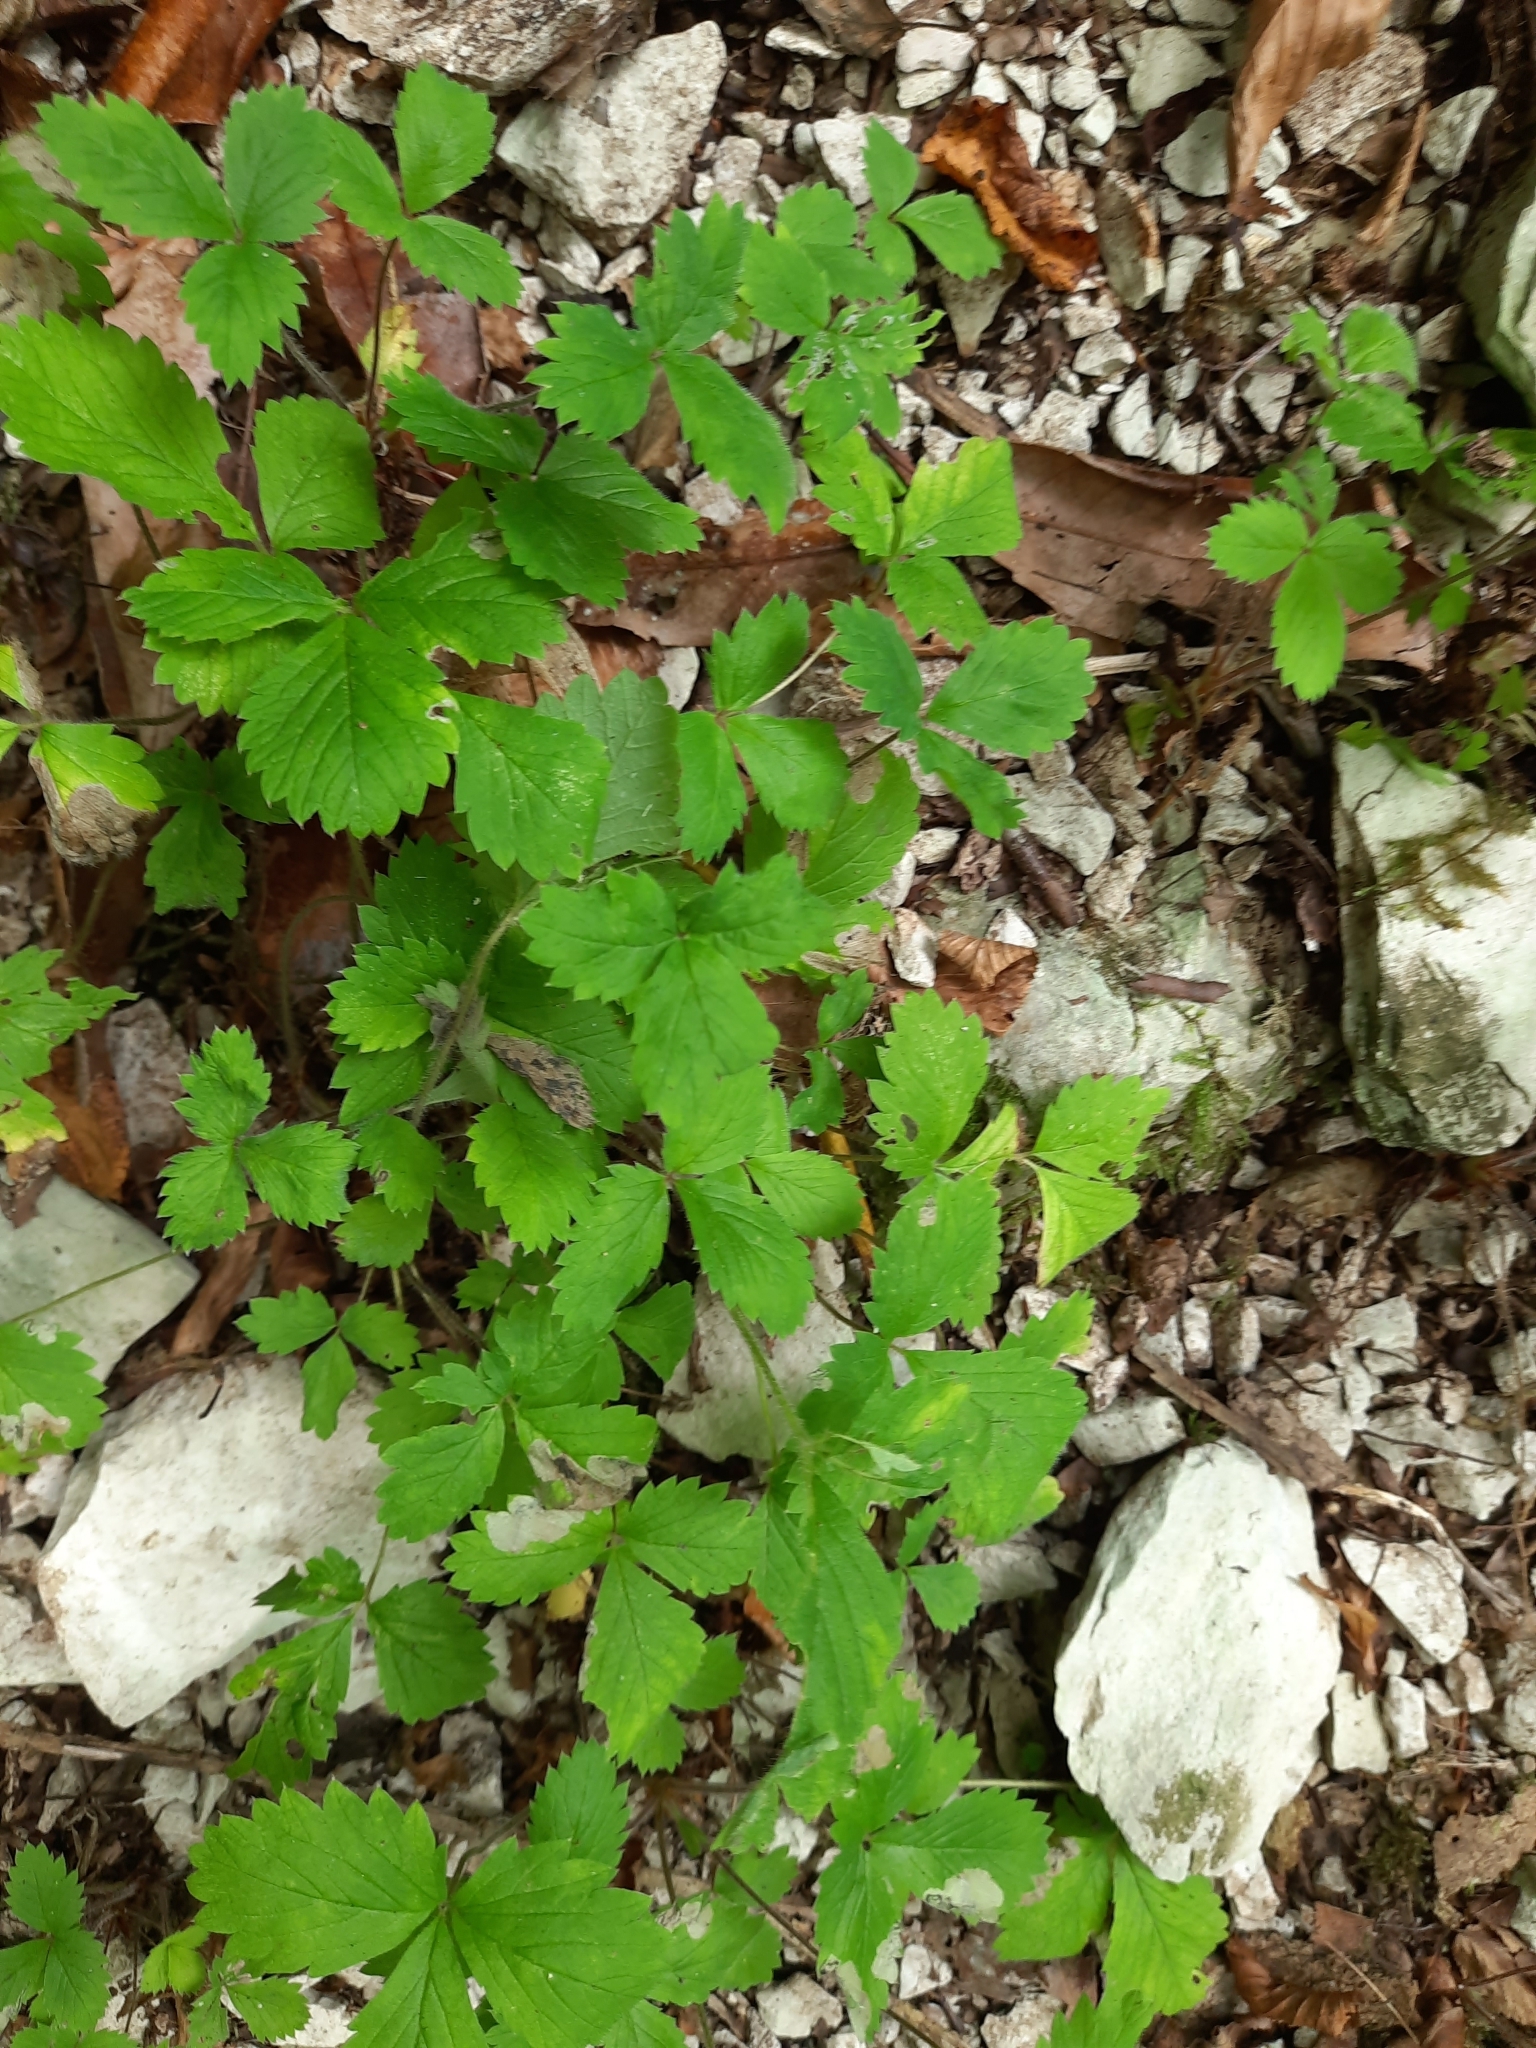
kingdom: Plantae
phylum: Tracheophyta
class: Magnoliopsida
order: Rosales
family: Rosaceae
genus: Potentilla
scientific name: Potentilla micrantha
